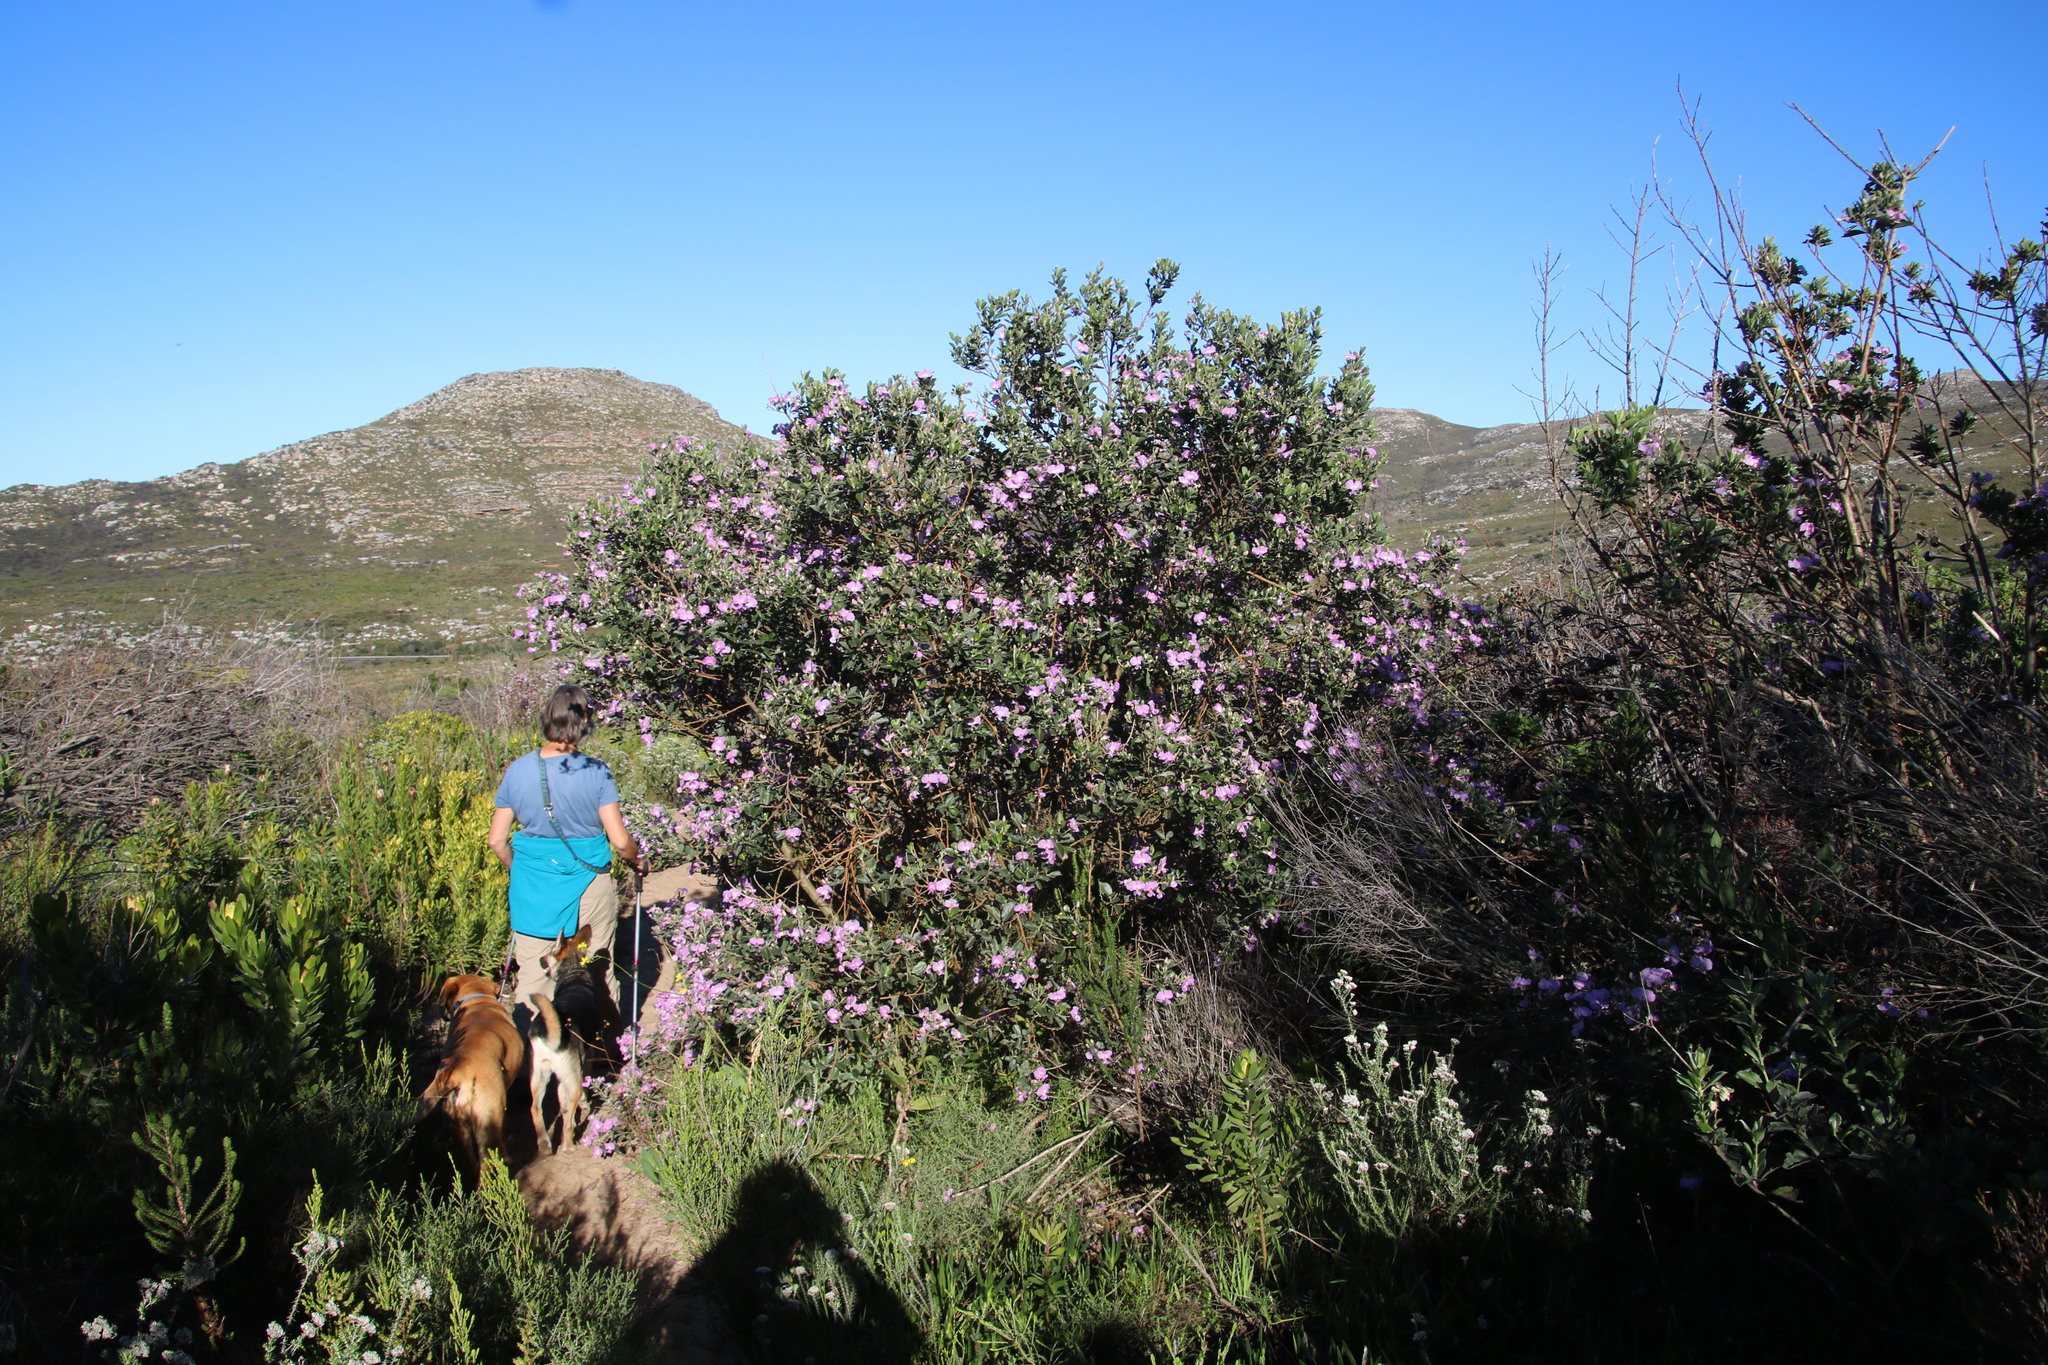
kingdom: Plantae
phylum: Tracheophyta
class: Magnoliopsida
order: Fabales
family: Fabaceae
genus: Podalyria
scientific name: Podalyria calyptrata
